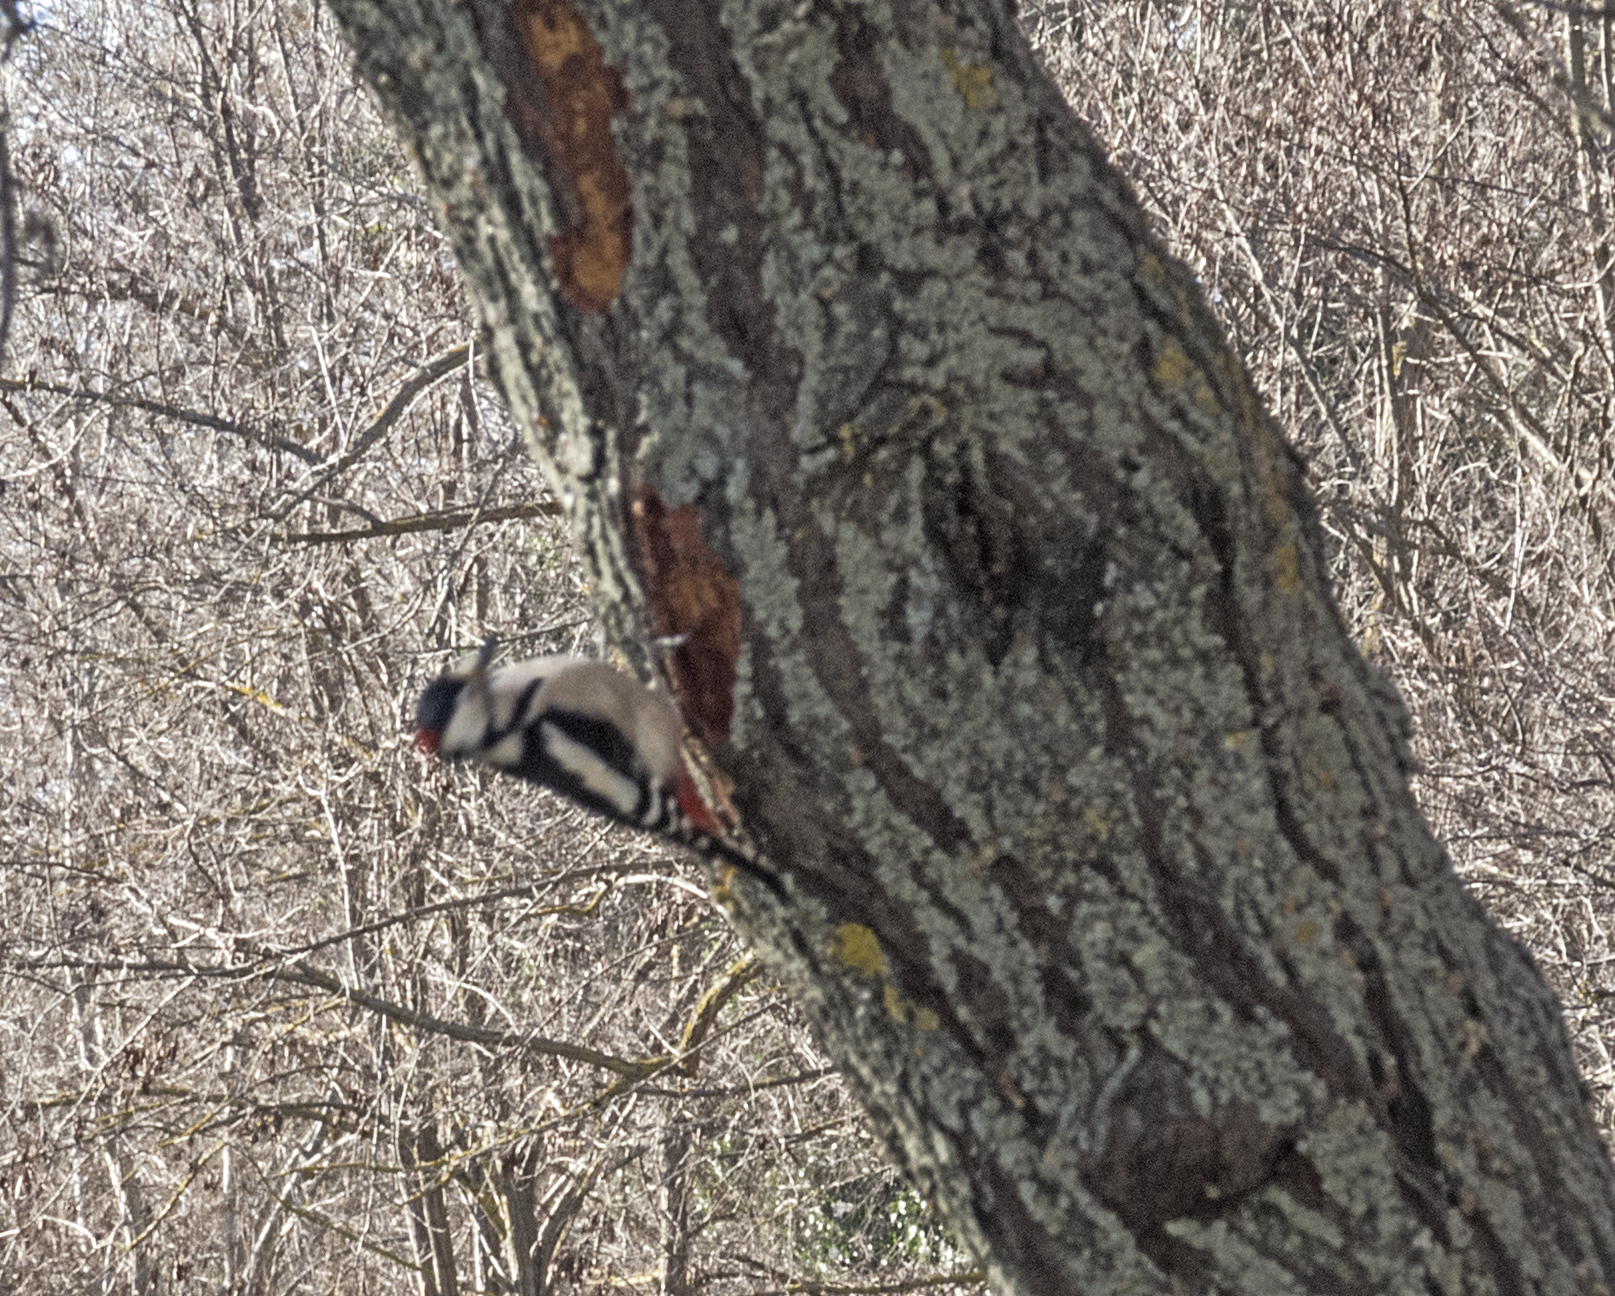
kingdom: Animalia
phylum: Chordata
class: Aves
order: Piciformes
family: Picidae
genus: Dendrocopos
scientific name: Dendrocopos major
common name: Great spotted woodpecker
